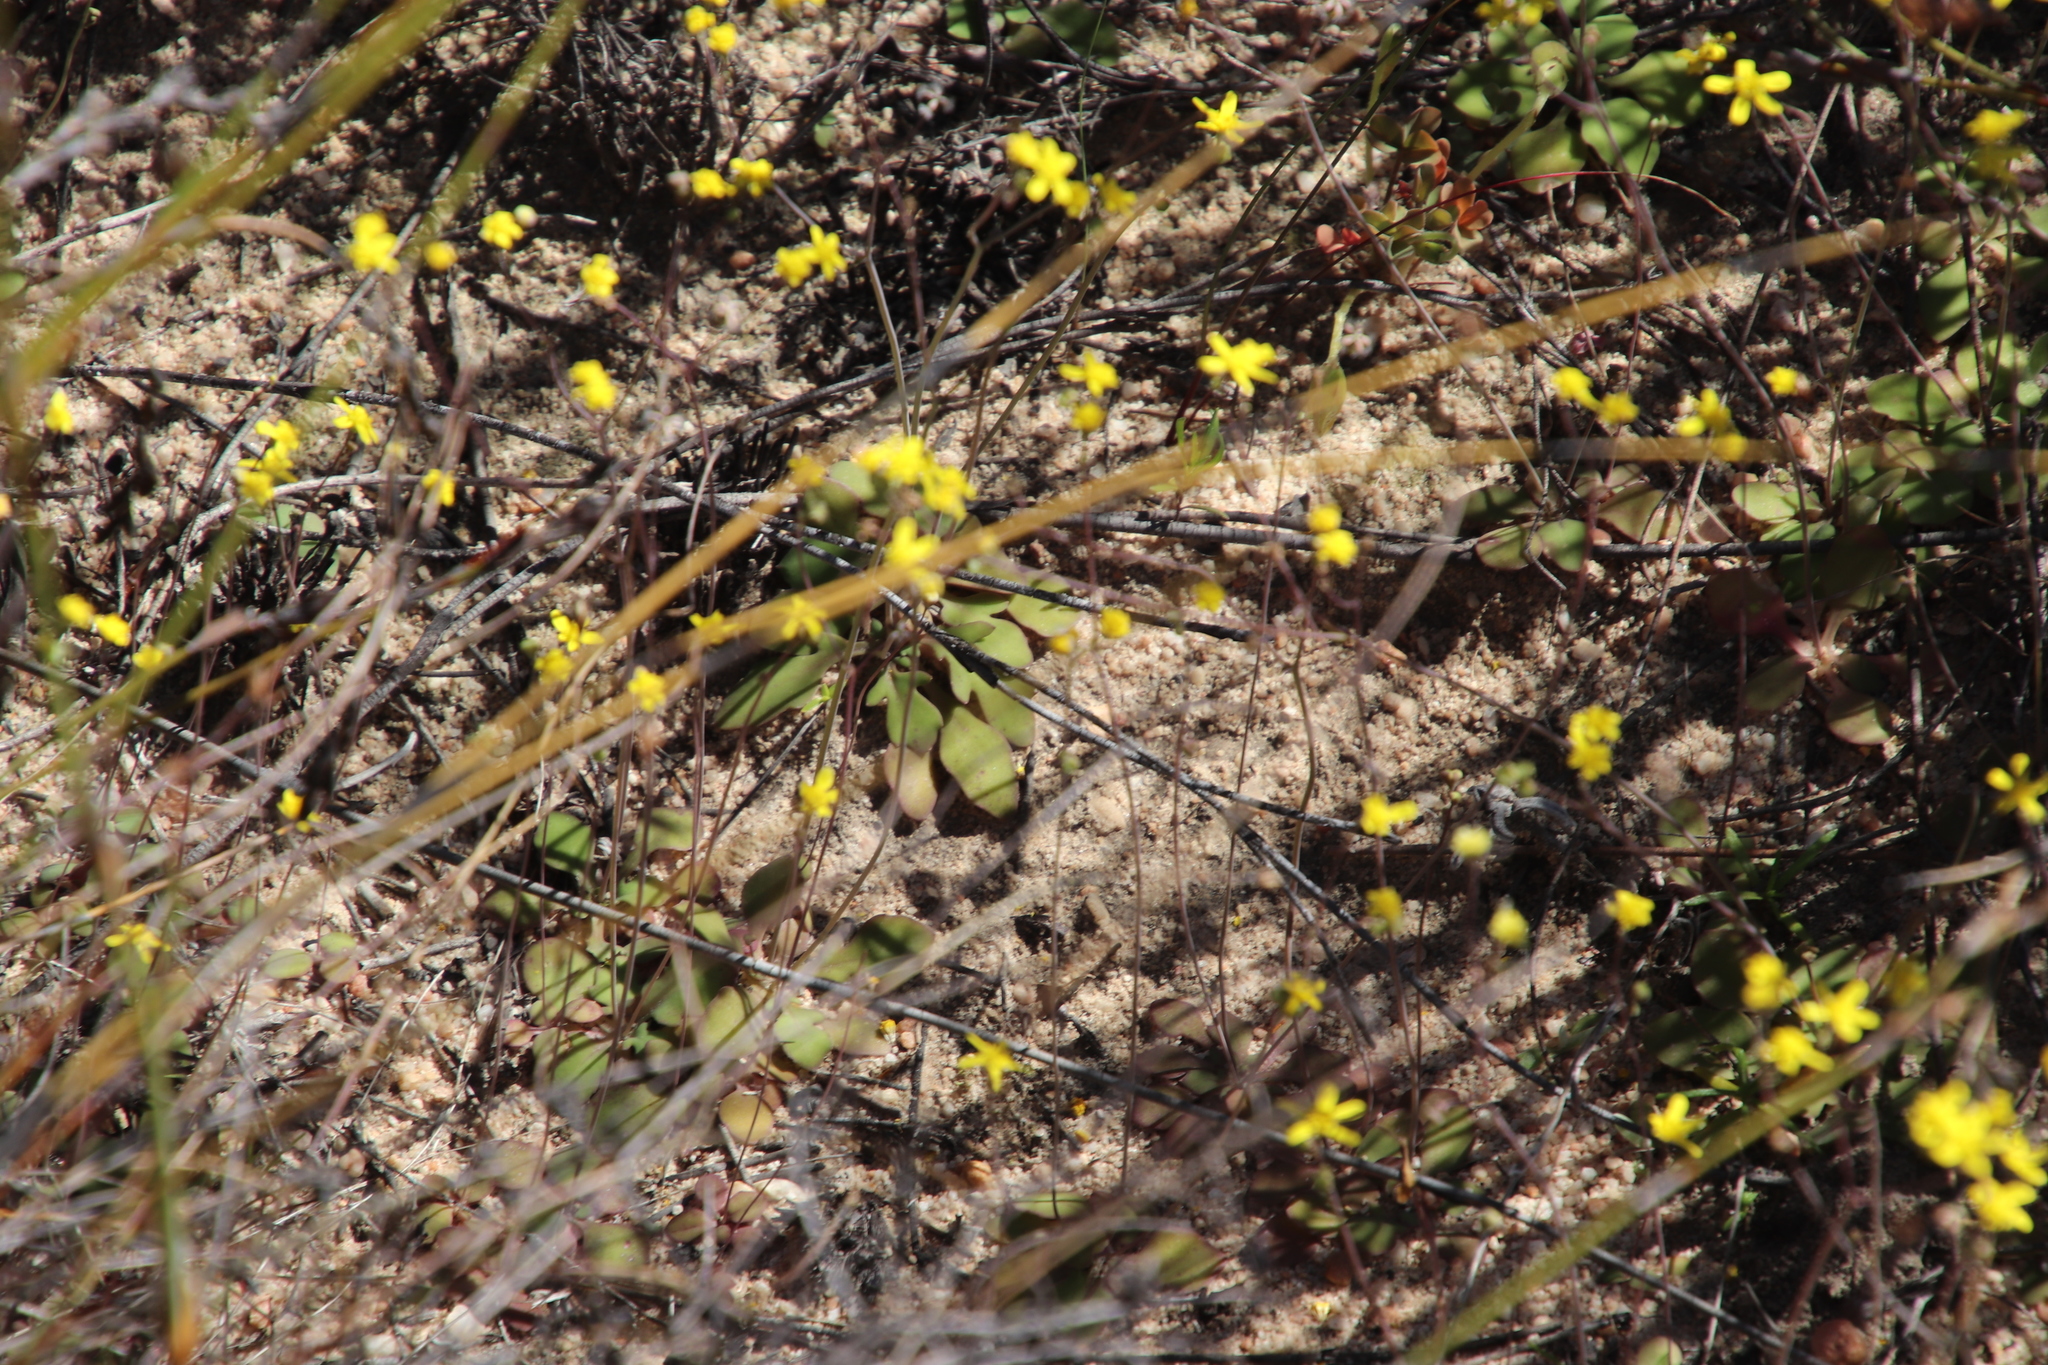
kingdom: Plantae
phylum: Tracheophyta
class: Magnoliopsida
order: Asterales
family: Asteraceae
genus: Gymnodiscus
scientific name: Gymnodiscus capillaris
